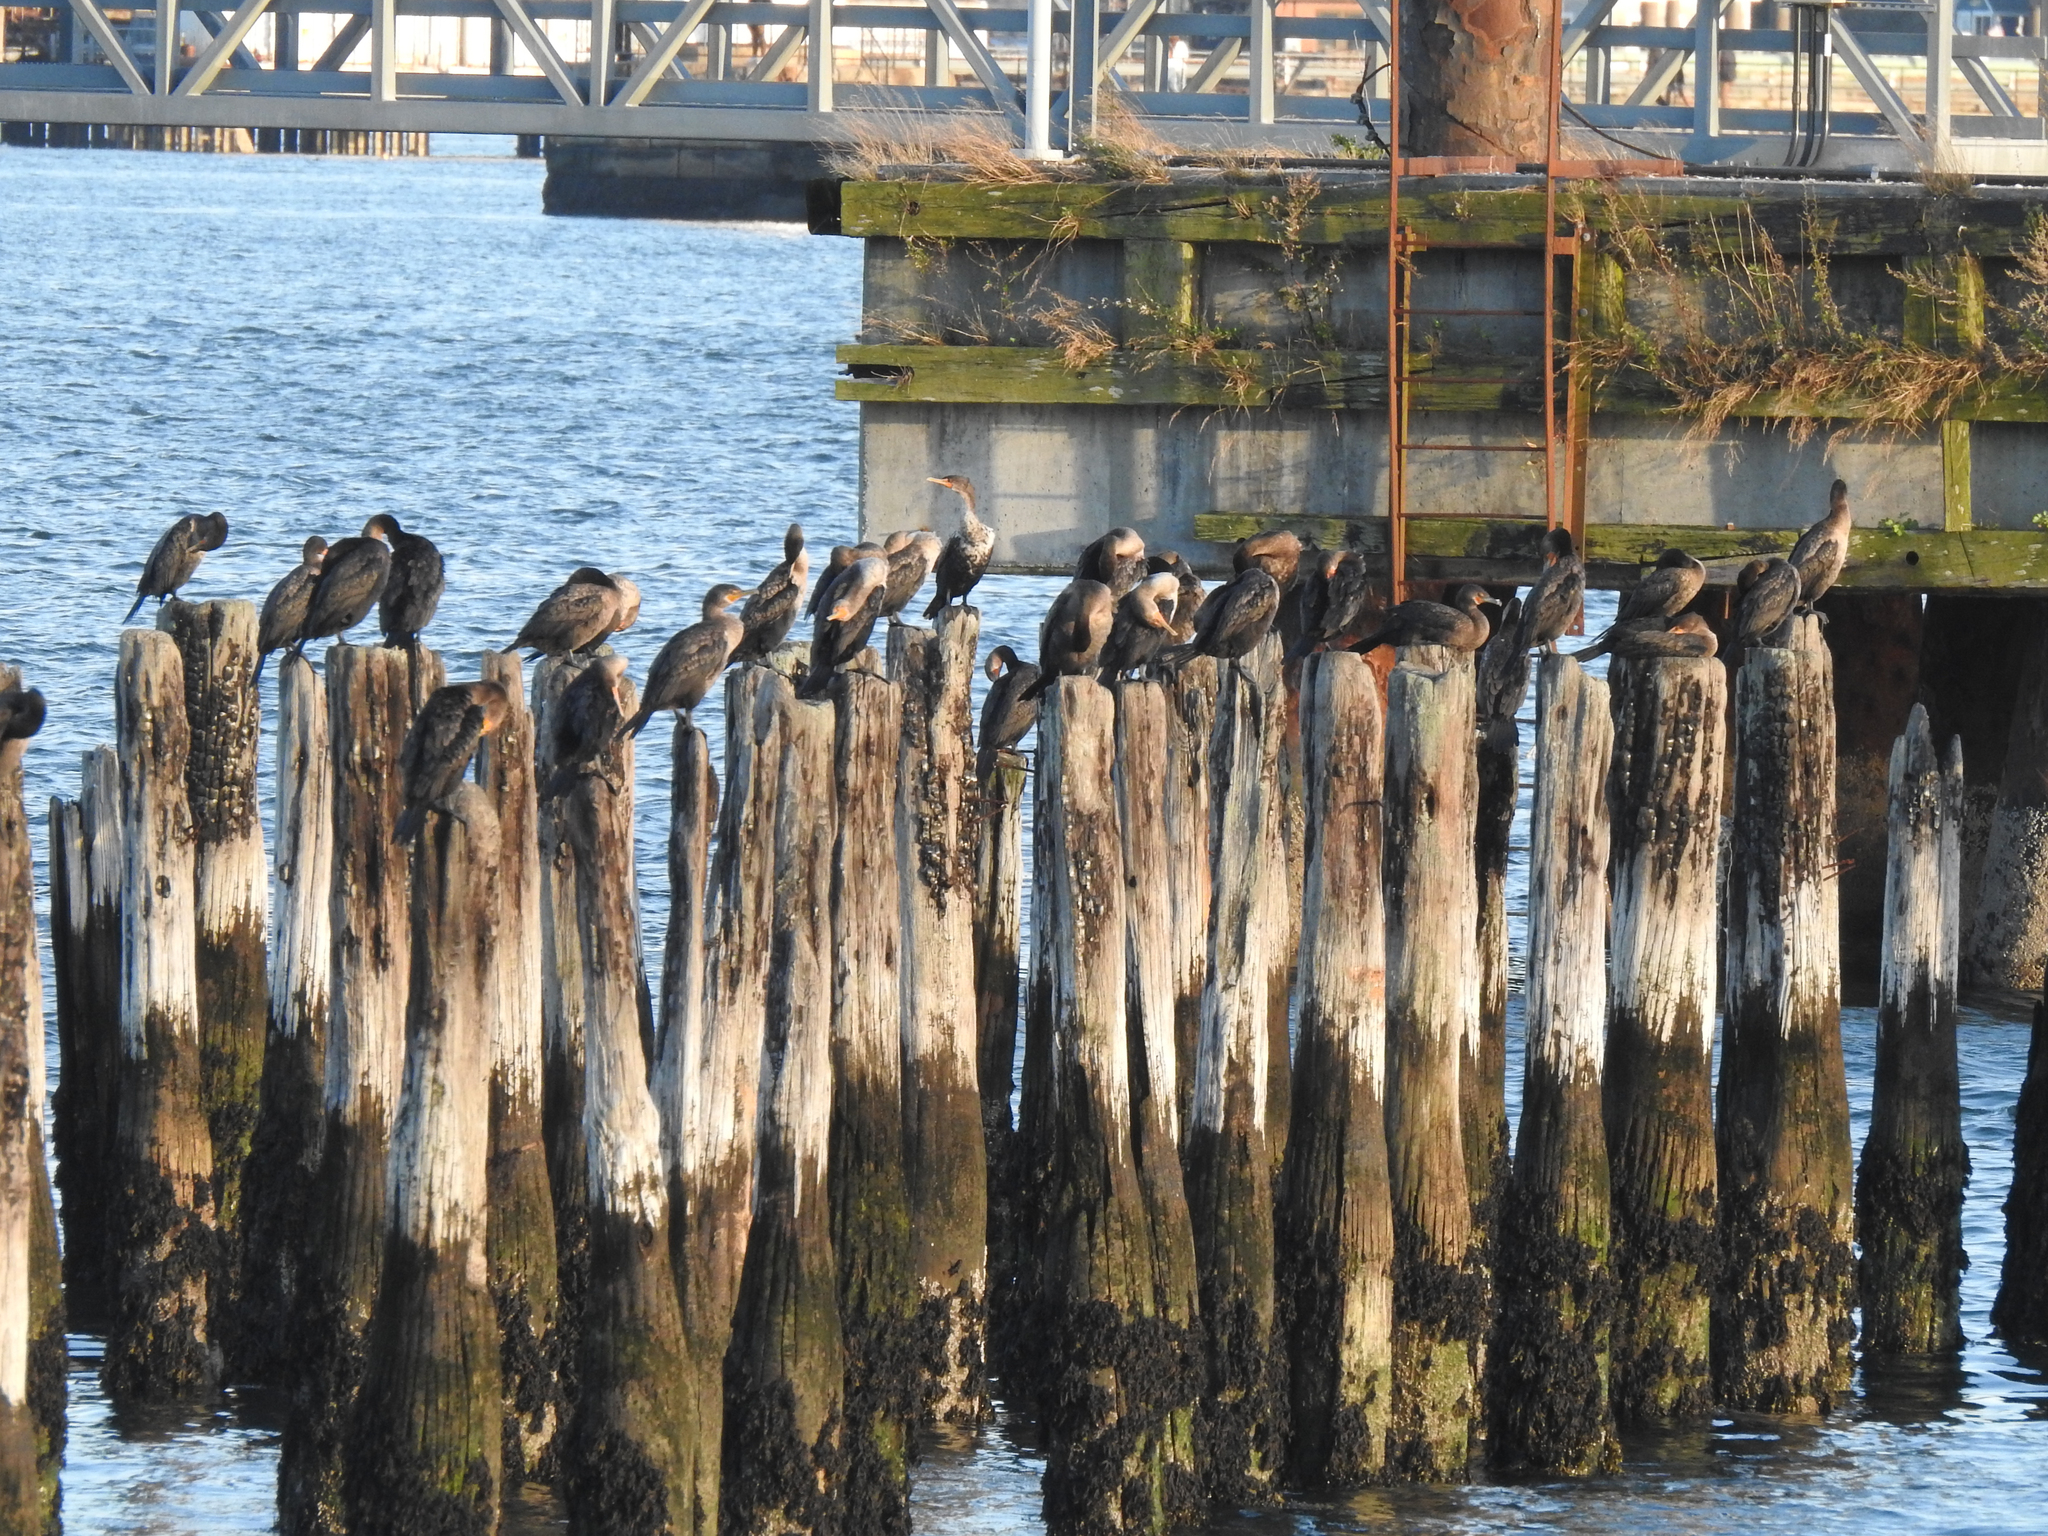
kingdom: Animalia
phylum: Chordata
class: Aves
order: Suliformes
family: Phalacrocoracidae
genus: Phalacrocorax
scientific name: Phalacrocorax auritus
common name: Double-crested cormorant
